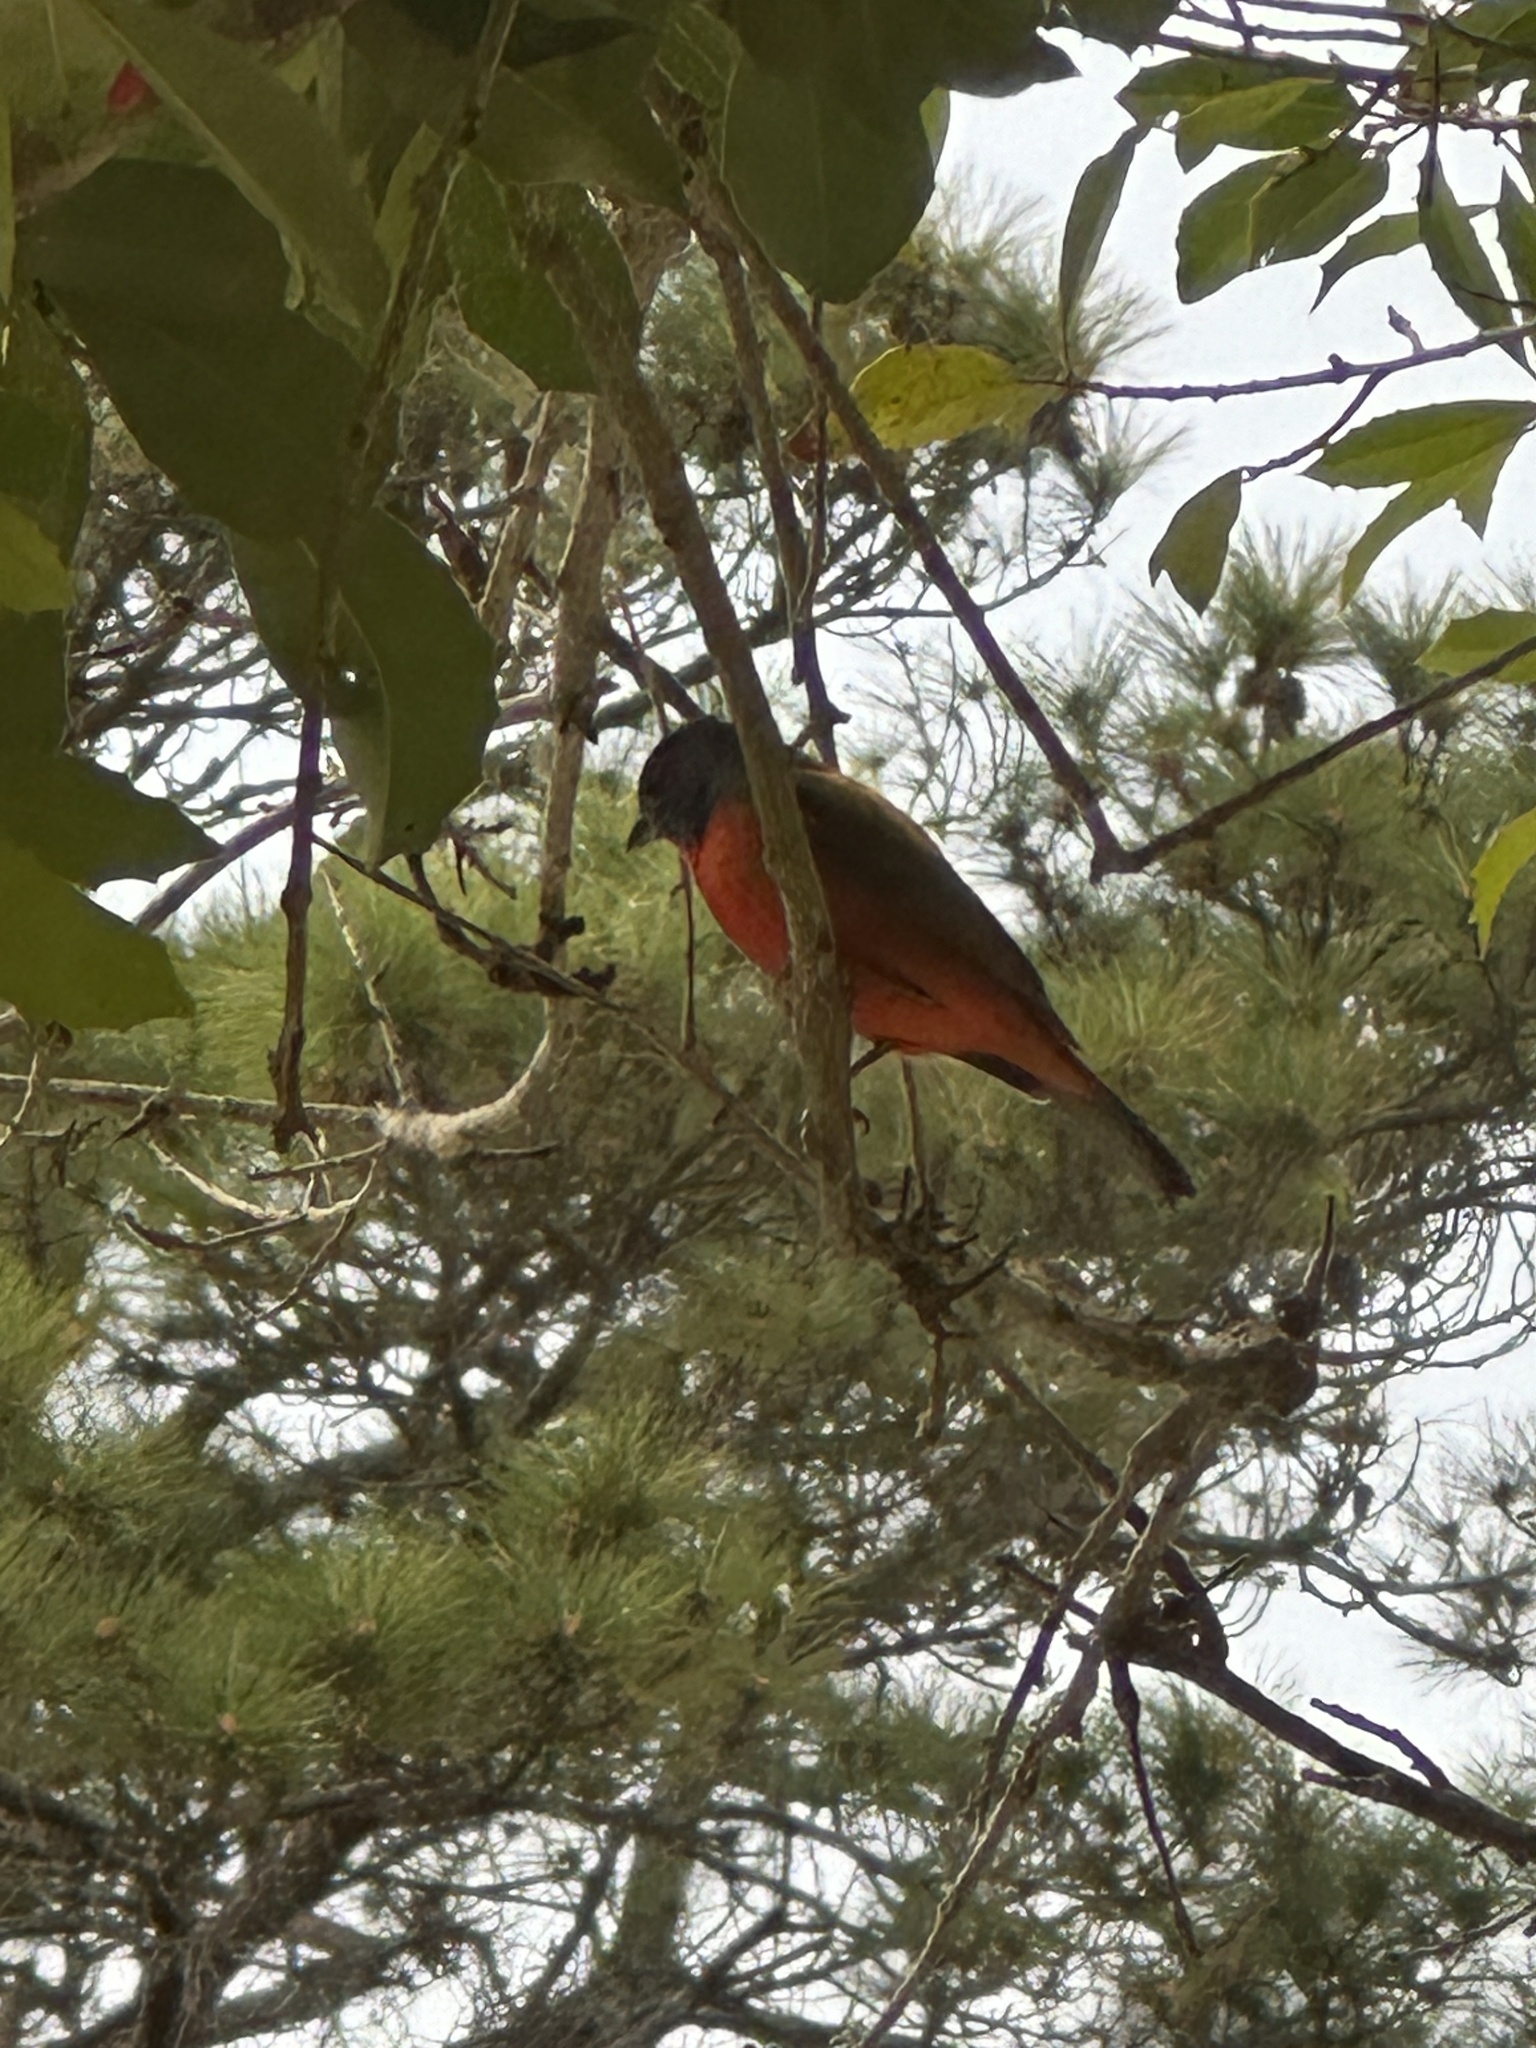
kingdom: Animalia
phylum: Chordata
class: Aves
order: Passeriformes
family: Cardinalidae
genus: Passerina
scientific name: Passerina ciris
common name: Painted bunting
